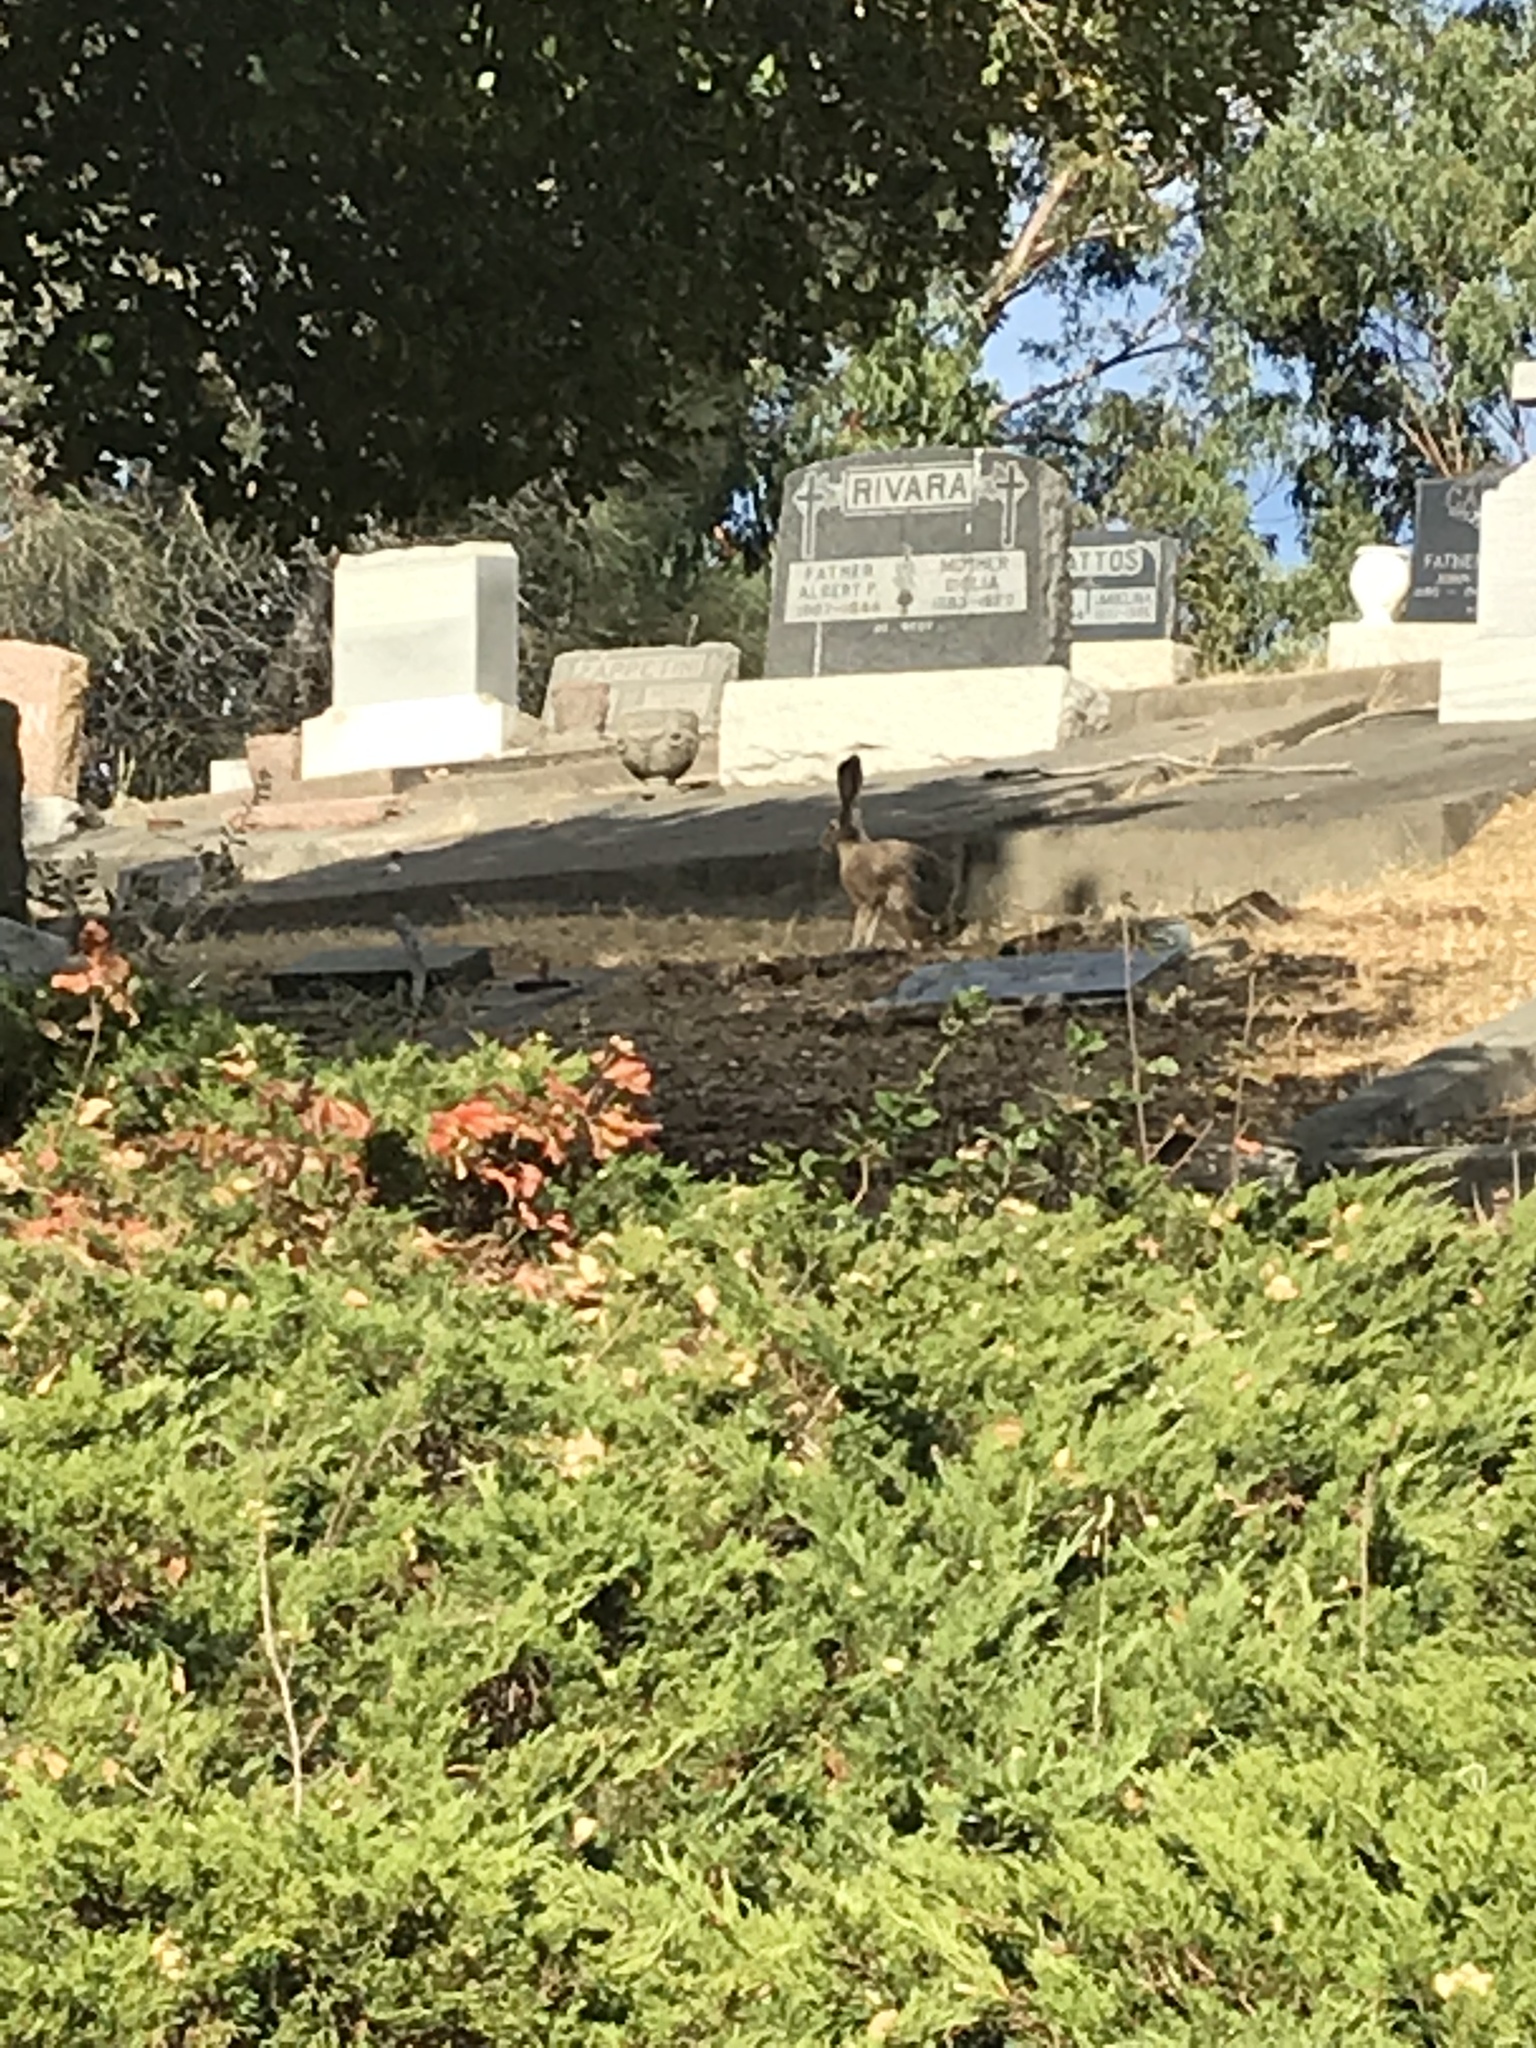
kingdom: Animalia
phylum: Chordata
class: Mammalia
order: Lagomorpha
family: Leporidae
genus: Lepus
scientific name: Lepus californicus
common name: Black-tailed jackrabbit
